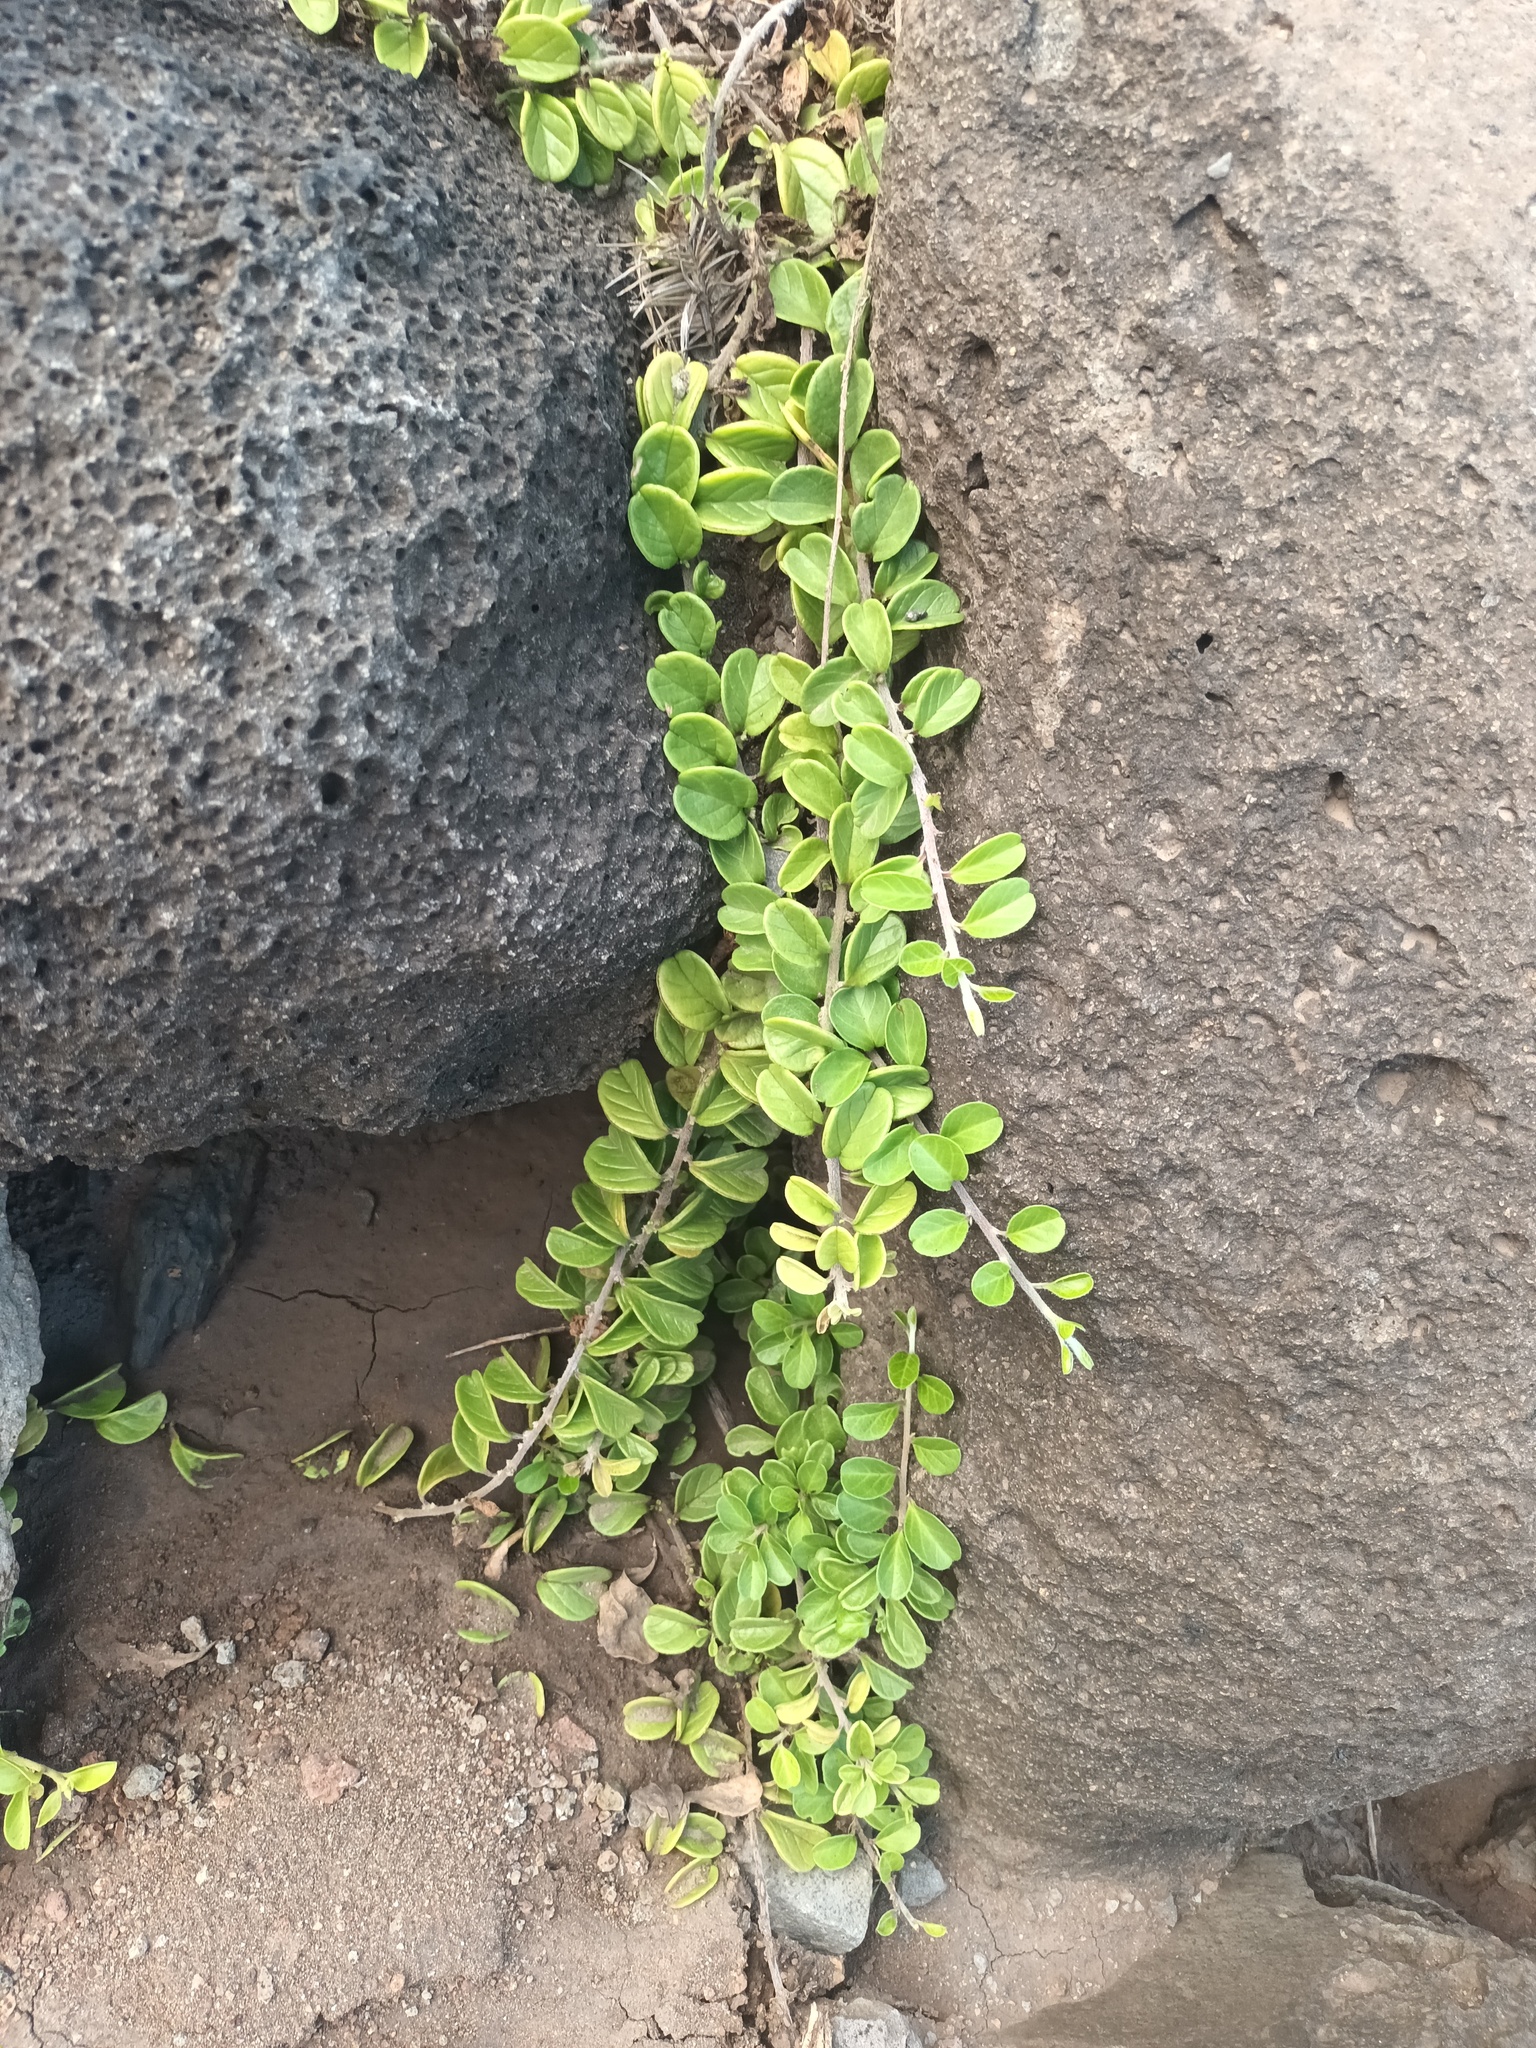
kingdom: Plantae
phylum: Tracheophyta
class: Magnoliopsida
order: Solanales
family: Convolvulaceae
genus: Jacquemontia
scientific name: Jacquemontia sandwicensis
